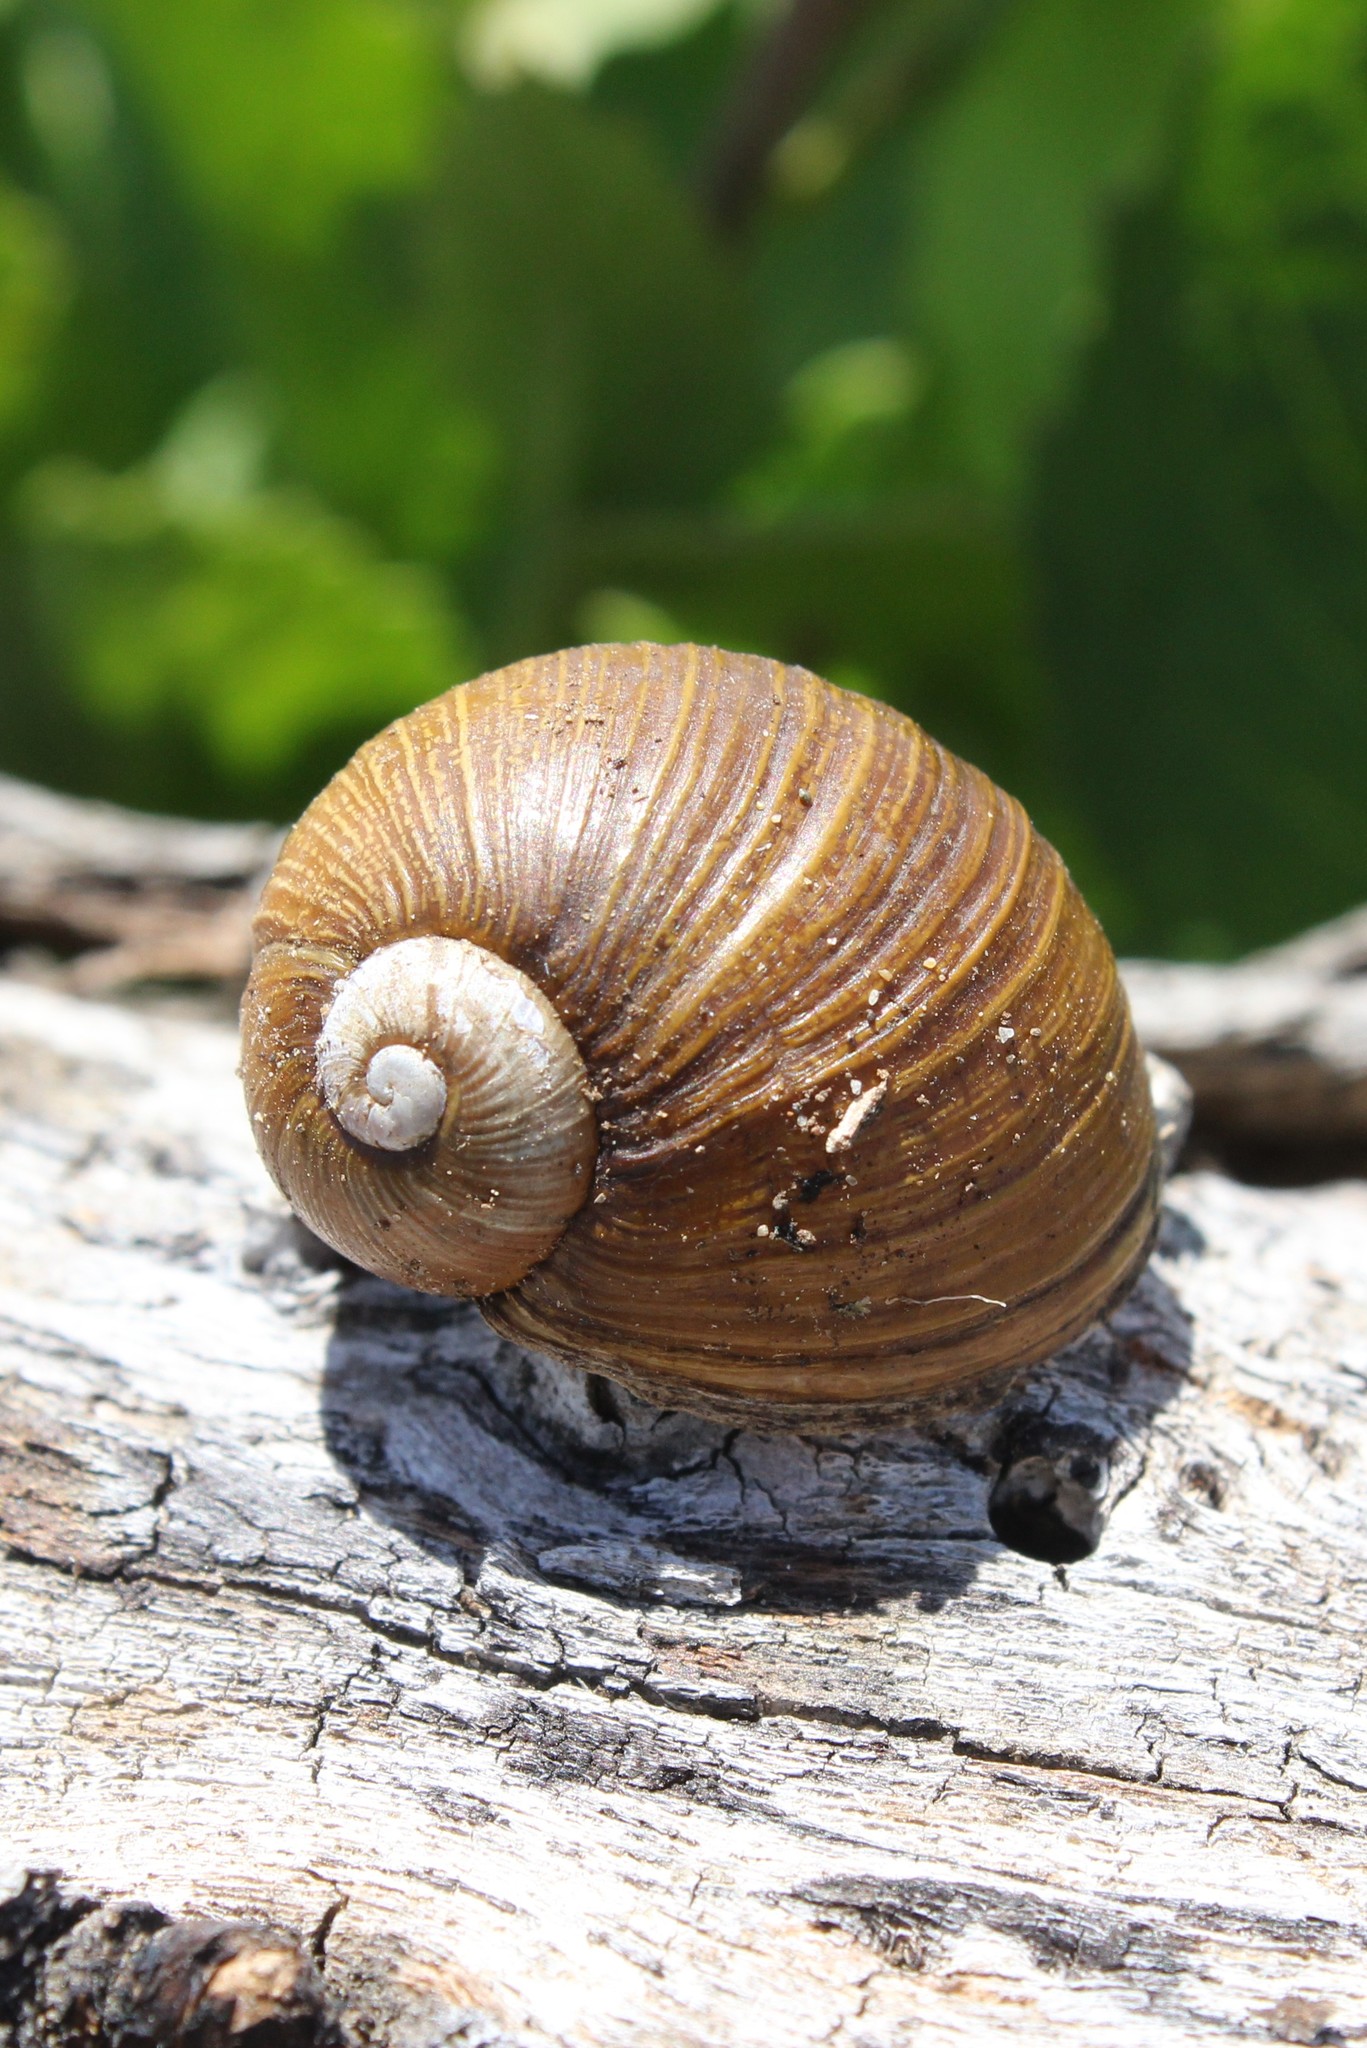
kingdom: Animalia
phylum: Mollusca
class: Gastropoda
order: Stylommatophora
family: Helicidae
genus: Cantareus
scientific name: Cantareus apertus
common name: Green gardensnail
